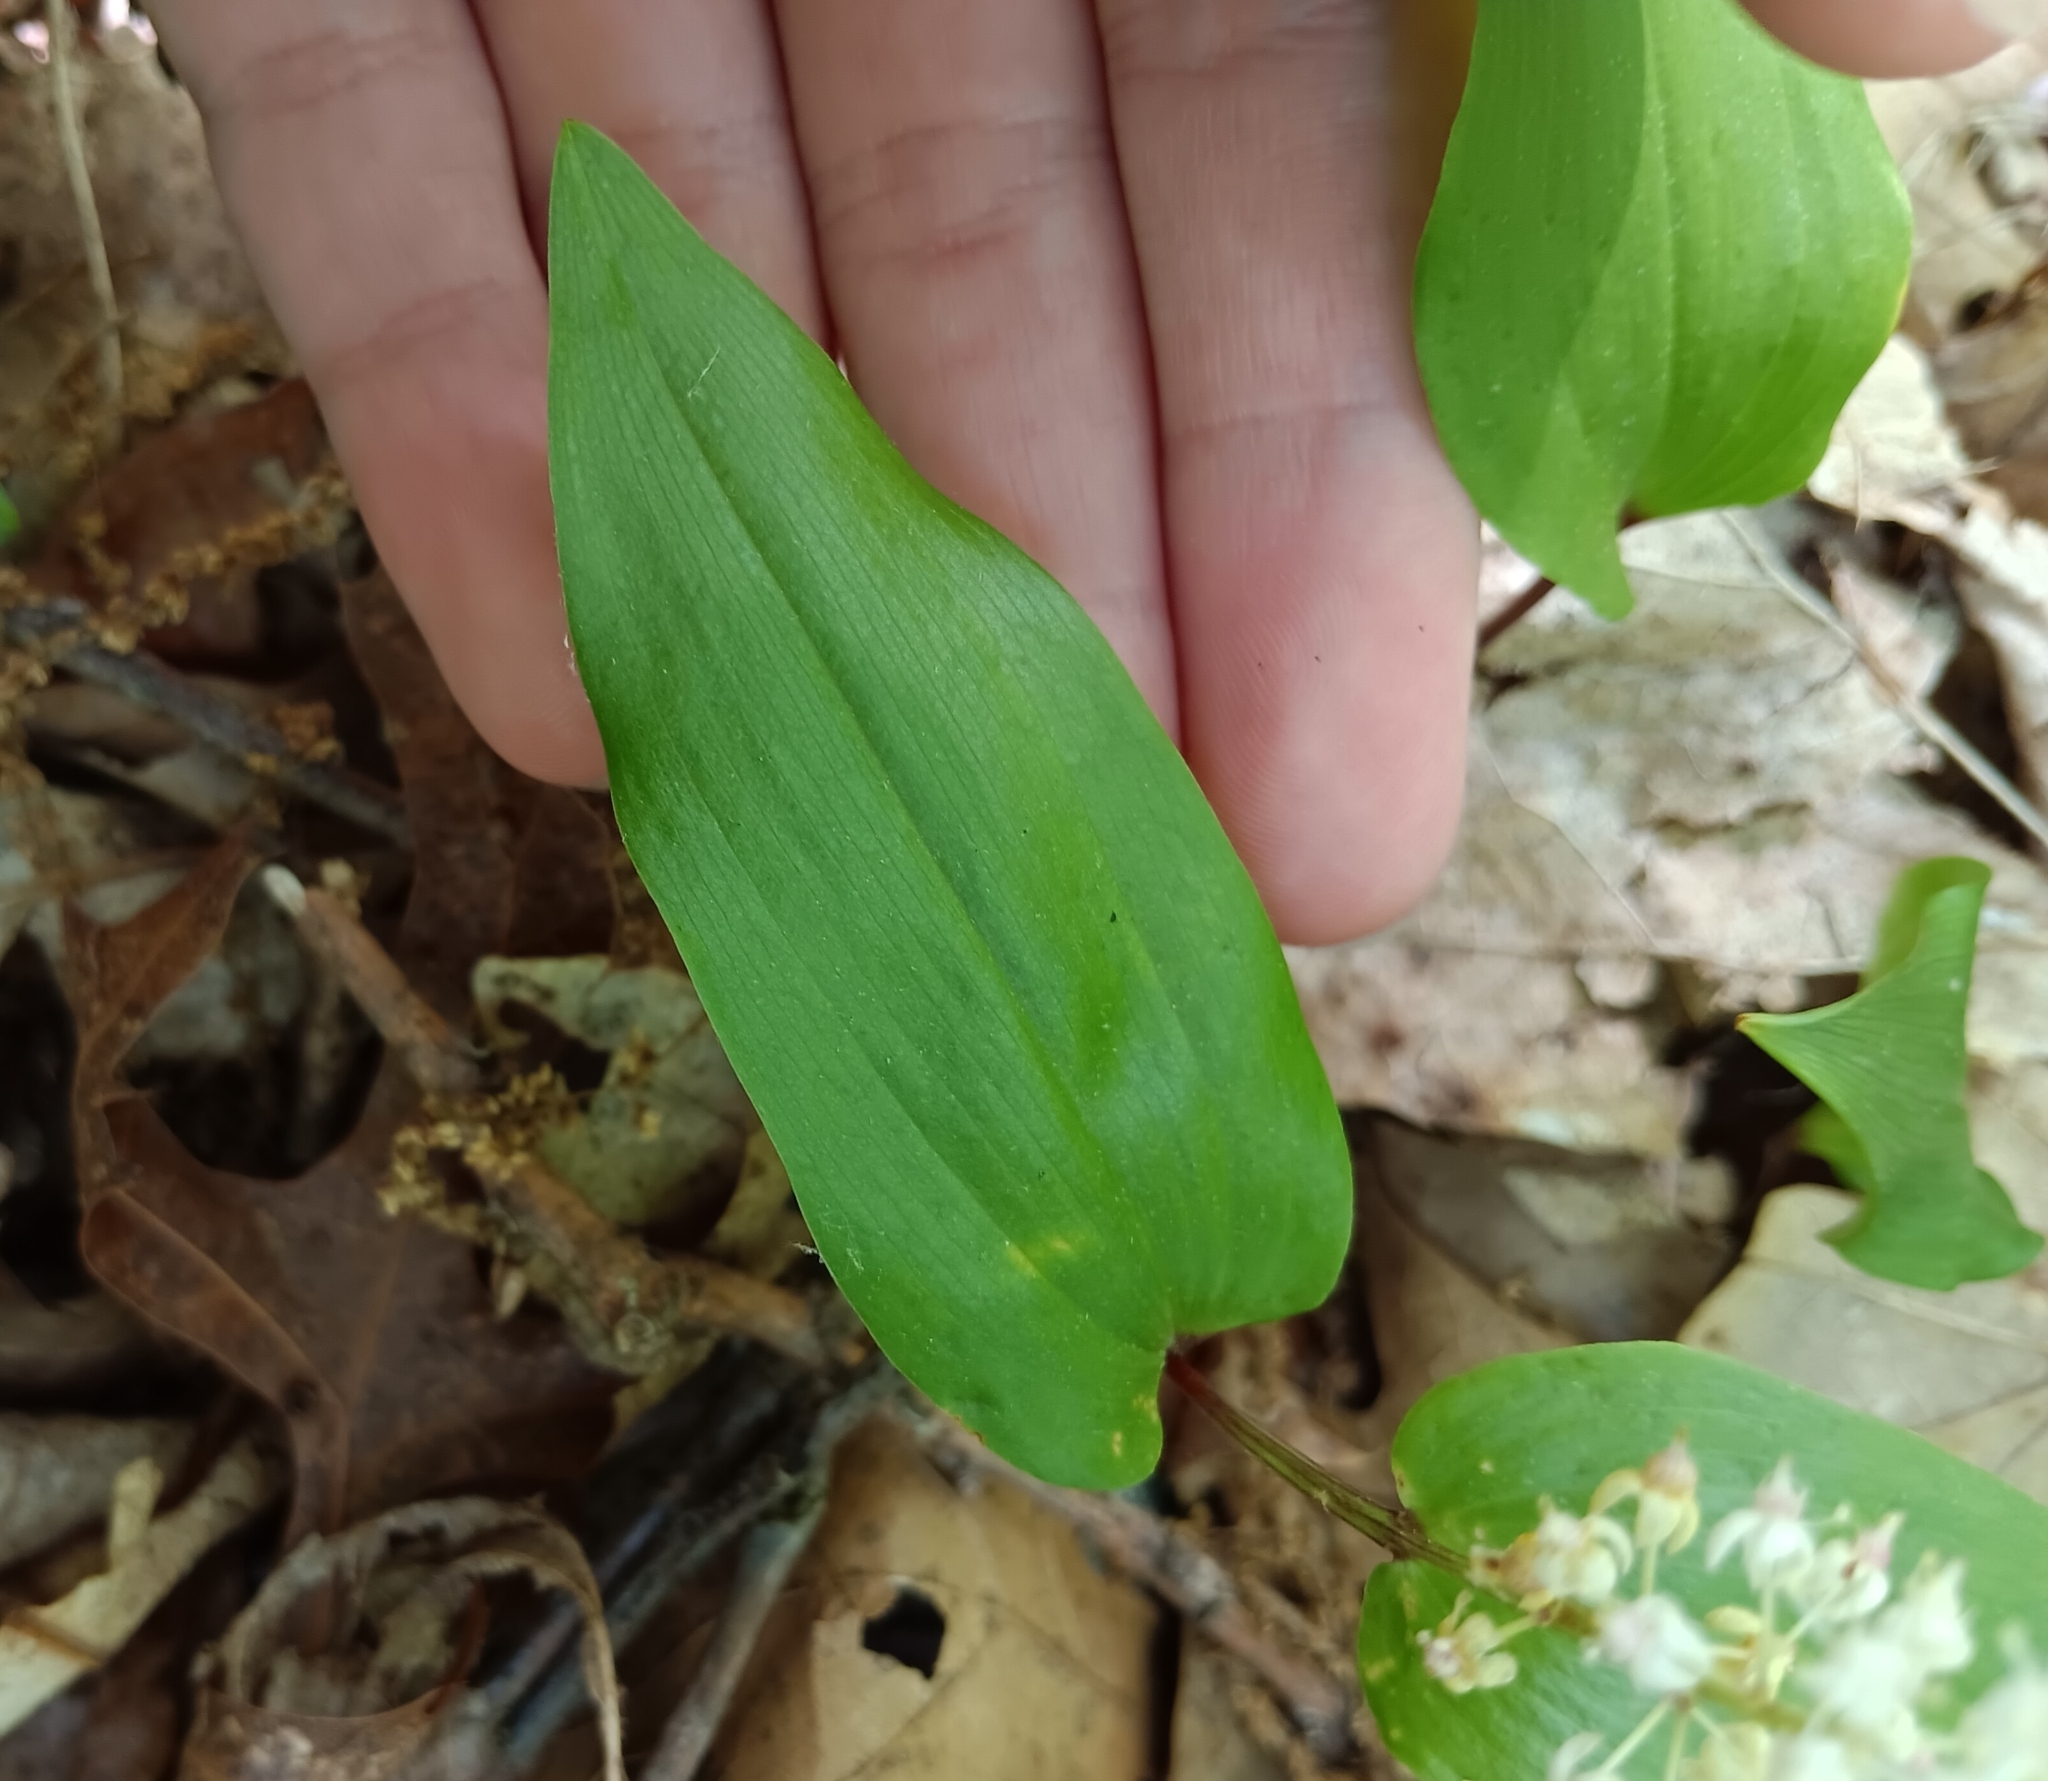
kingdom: Plantae
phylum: Tracheophyta
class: Liliopsida
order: Asparagales
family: Asparagaceae
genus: Maianthemum
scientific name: Maianthemum canadense
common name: False lily-of-the-valley
